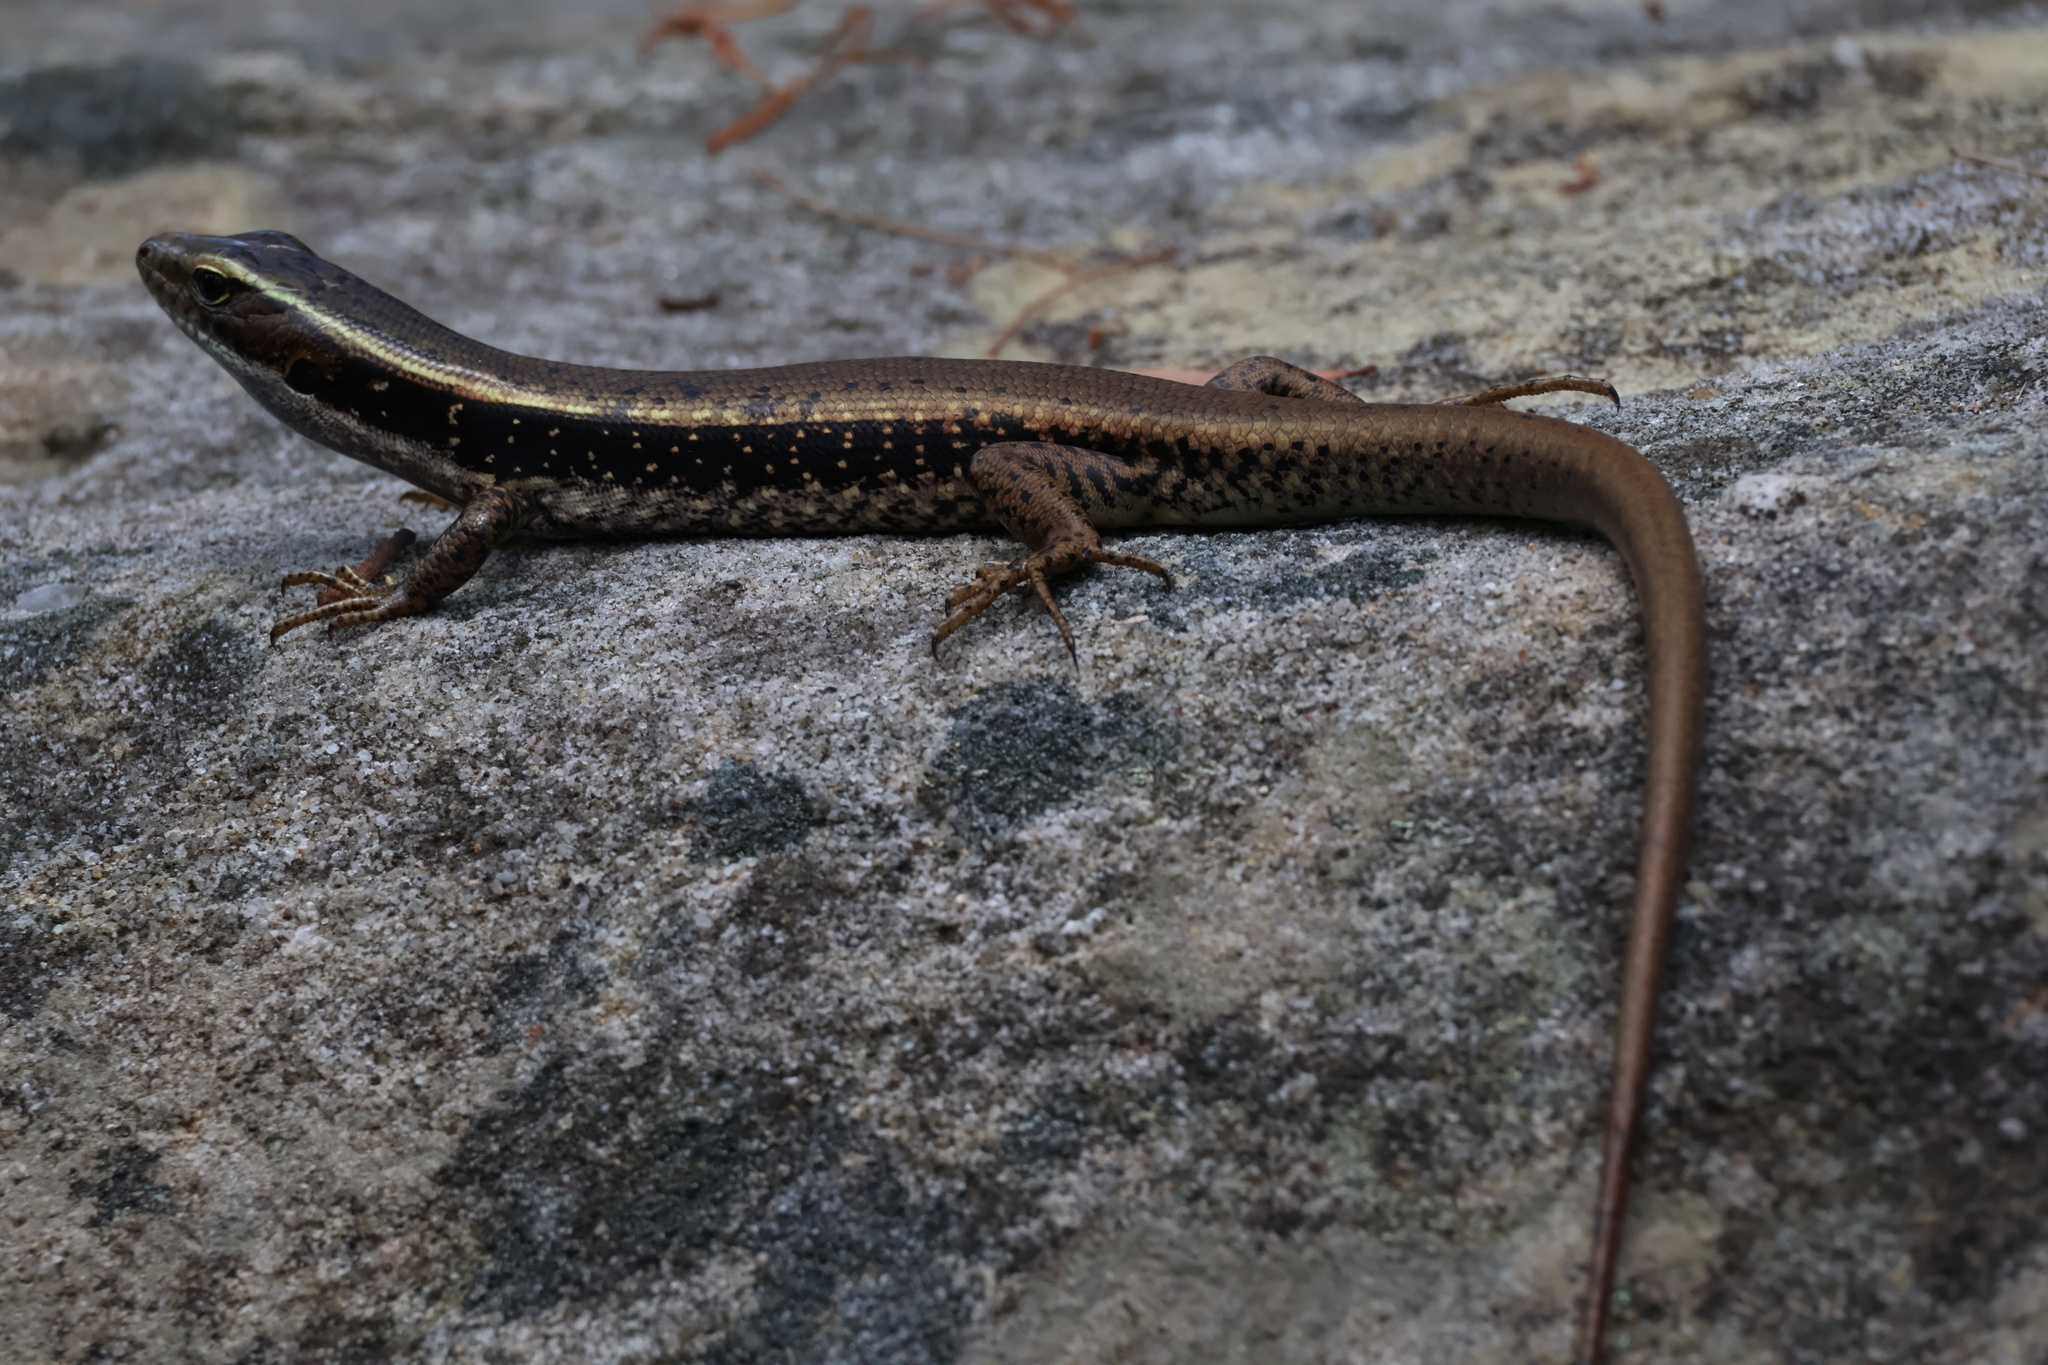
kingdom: Animalia
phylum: Chordata
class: Squamata
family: Scincidae
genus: Eulamprus
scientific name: Eulamprus quoyii
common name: Eastern water skink
